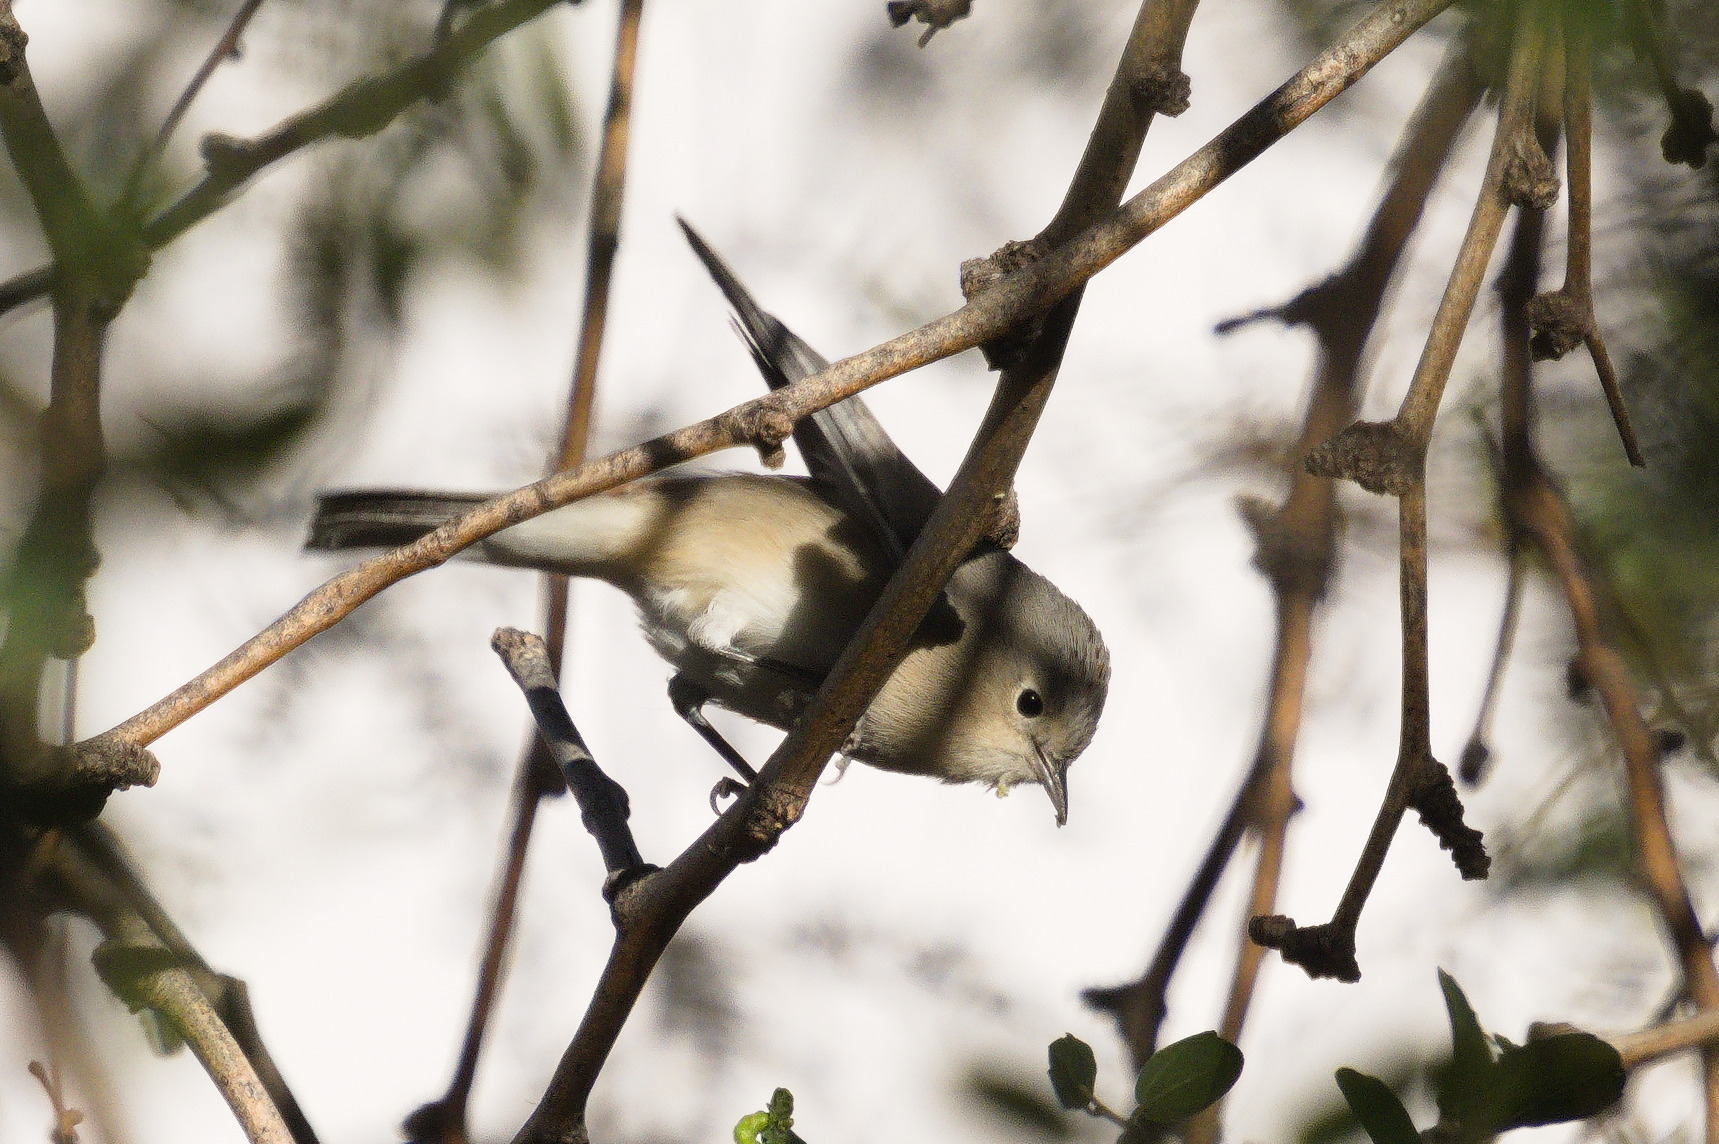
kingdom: Animalia
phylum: Chordata
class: Aves
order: Passeriformes
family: Parulidae
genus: Leiothlypis
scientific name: Leiothlypis luciae
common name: Lucy's warbler
